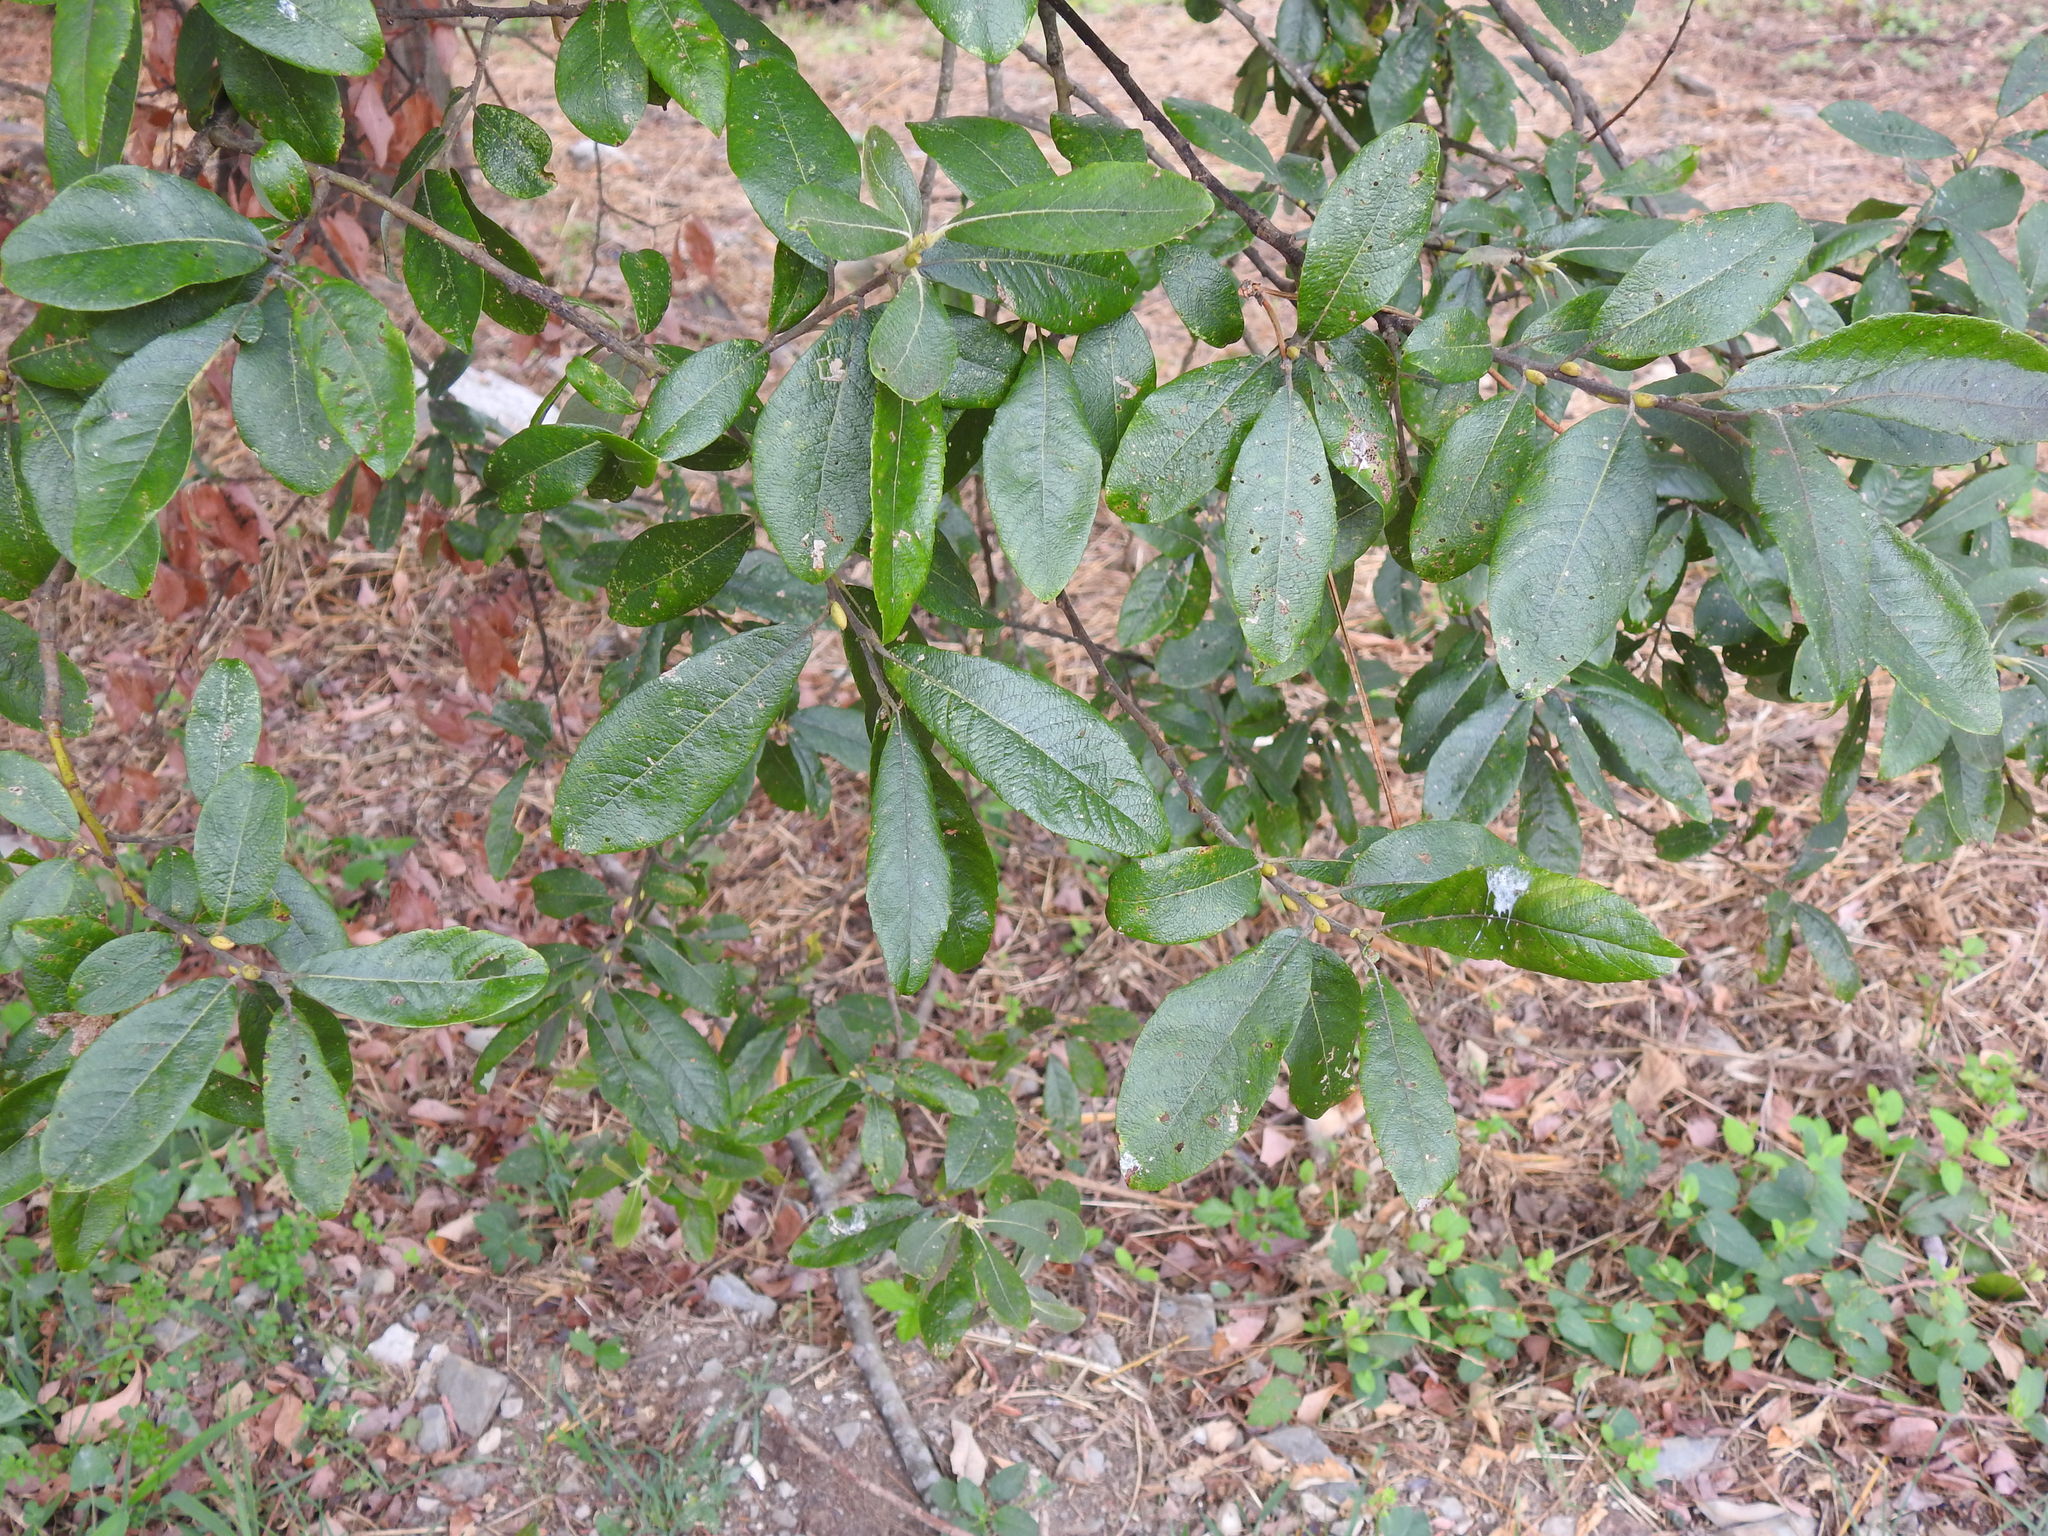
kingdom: Plantae
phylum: Tracheophyta
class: Magnoliopsida
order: Malpighiales
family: Salicaceae
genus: Salix
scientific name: Salix atrocinerea
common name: Rusty willow
